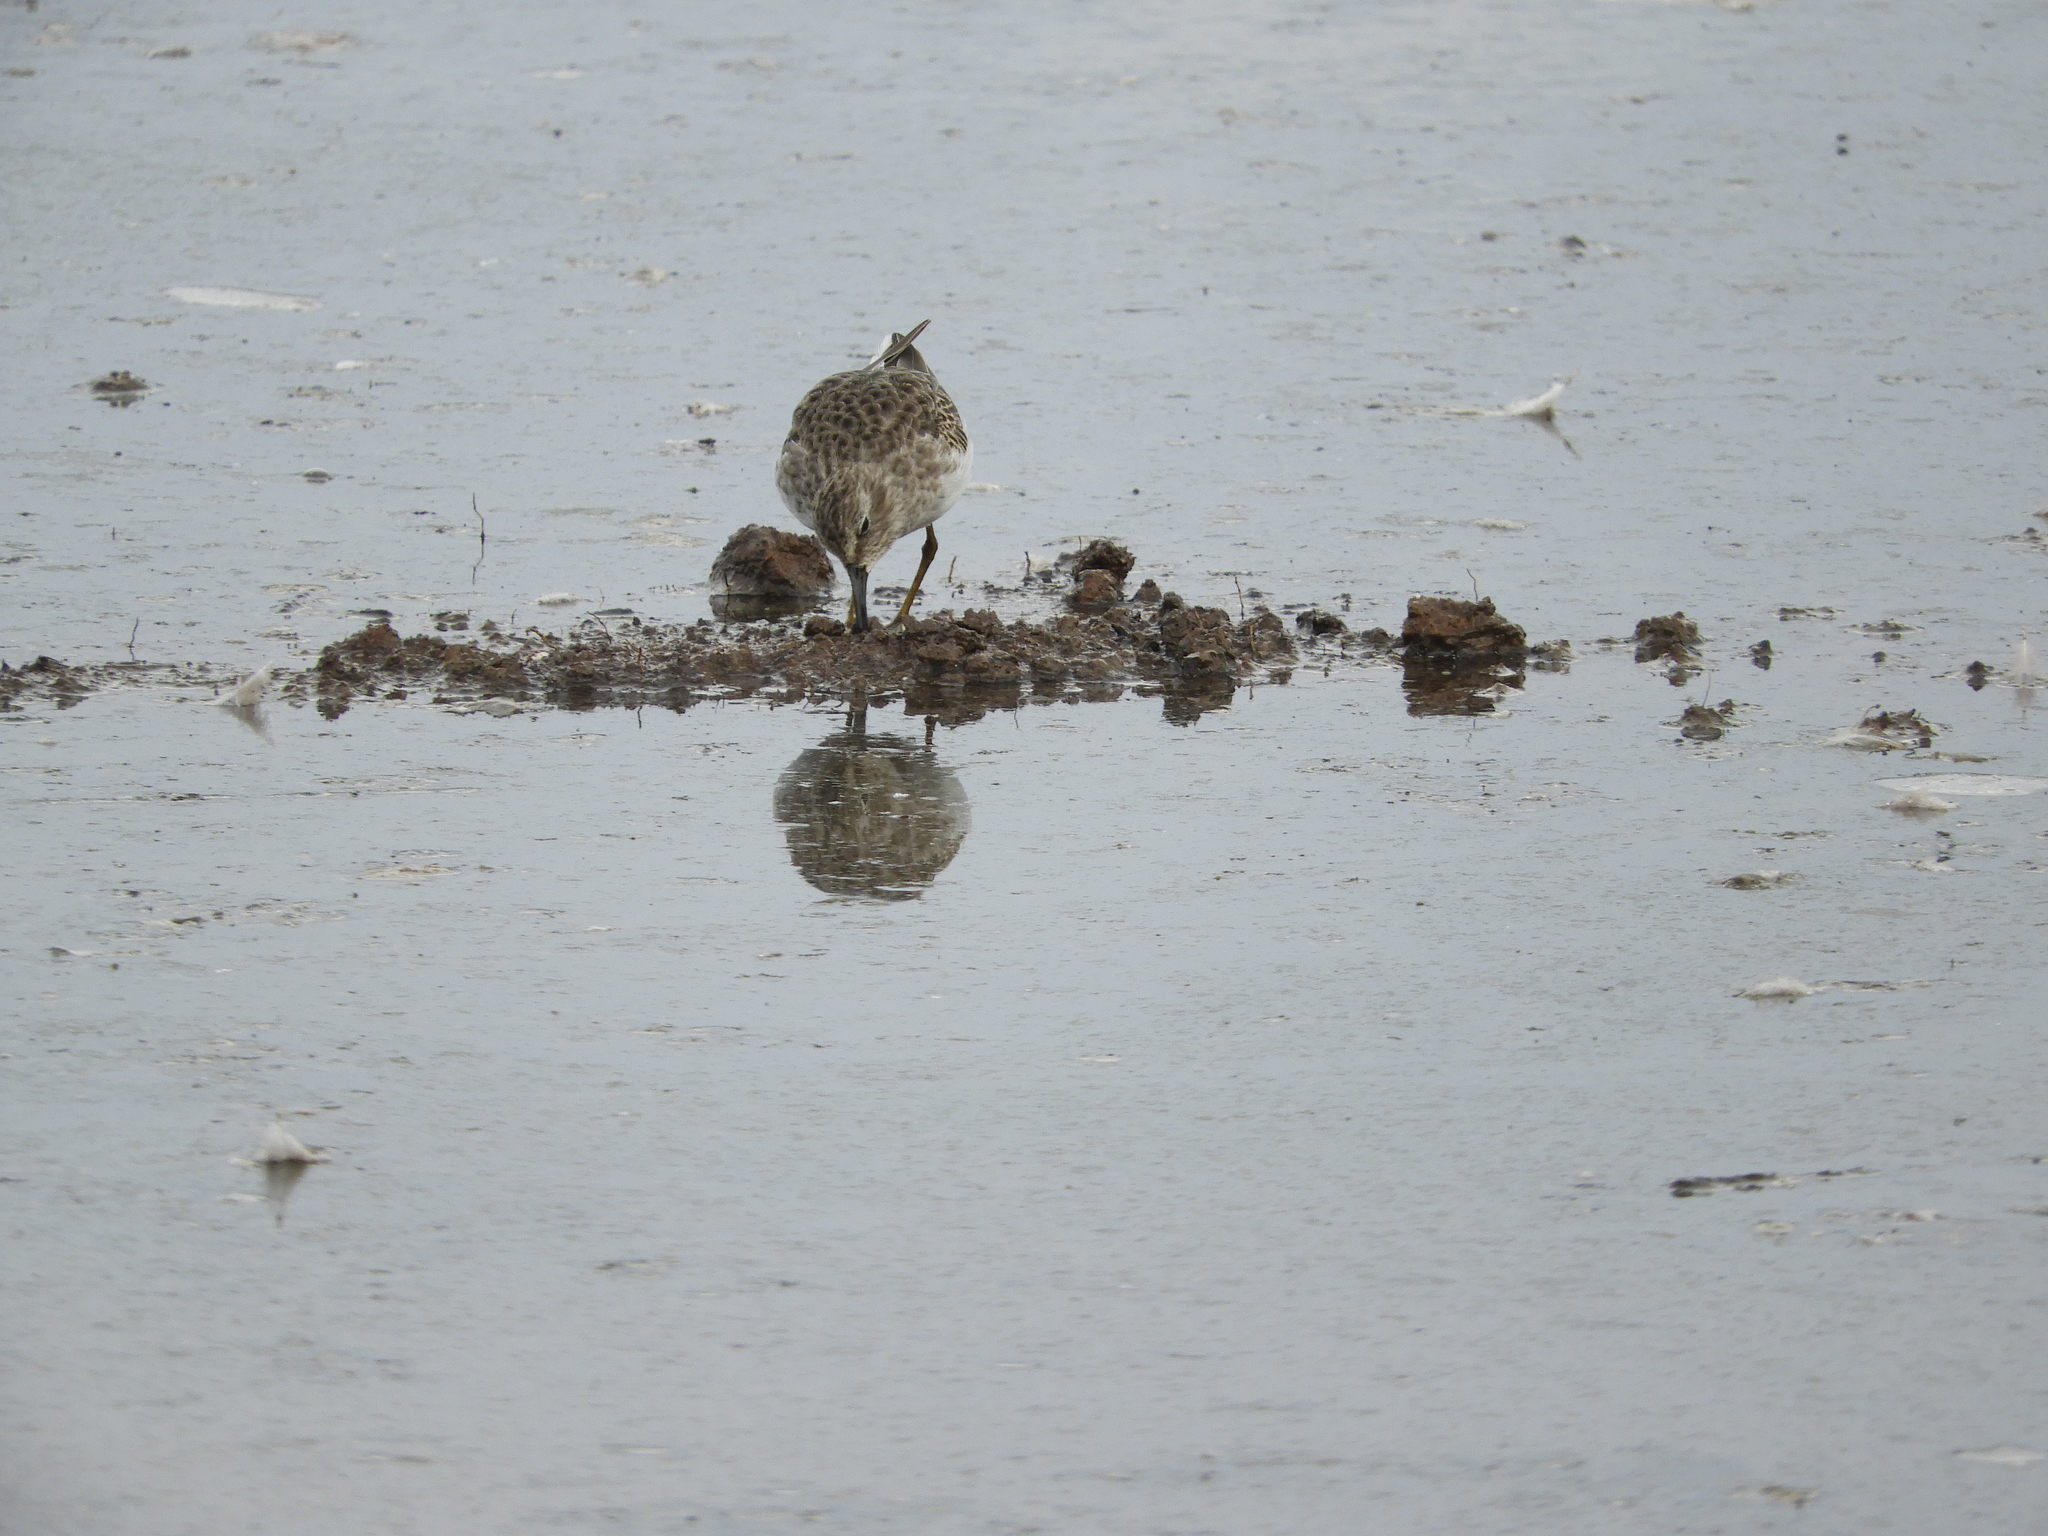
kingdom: Animalia
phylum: Chordata
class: Aves
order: Charadriiformes
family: Scolopacidae
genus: Calidris
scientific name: Calidris minutilla
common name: Least sandpiper
